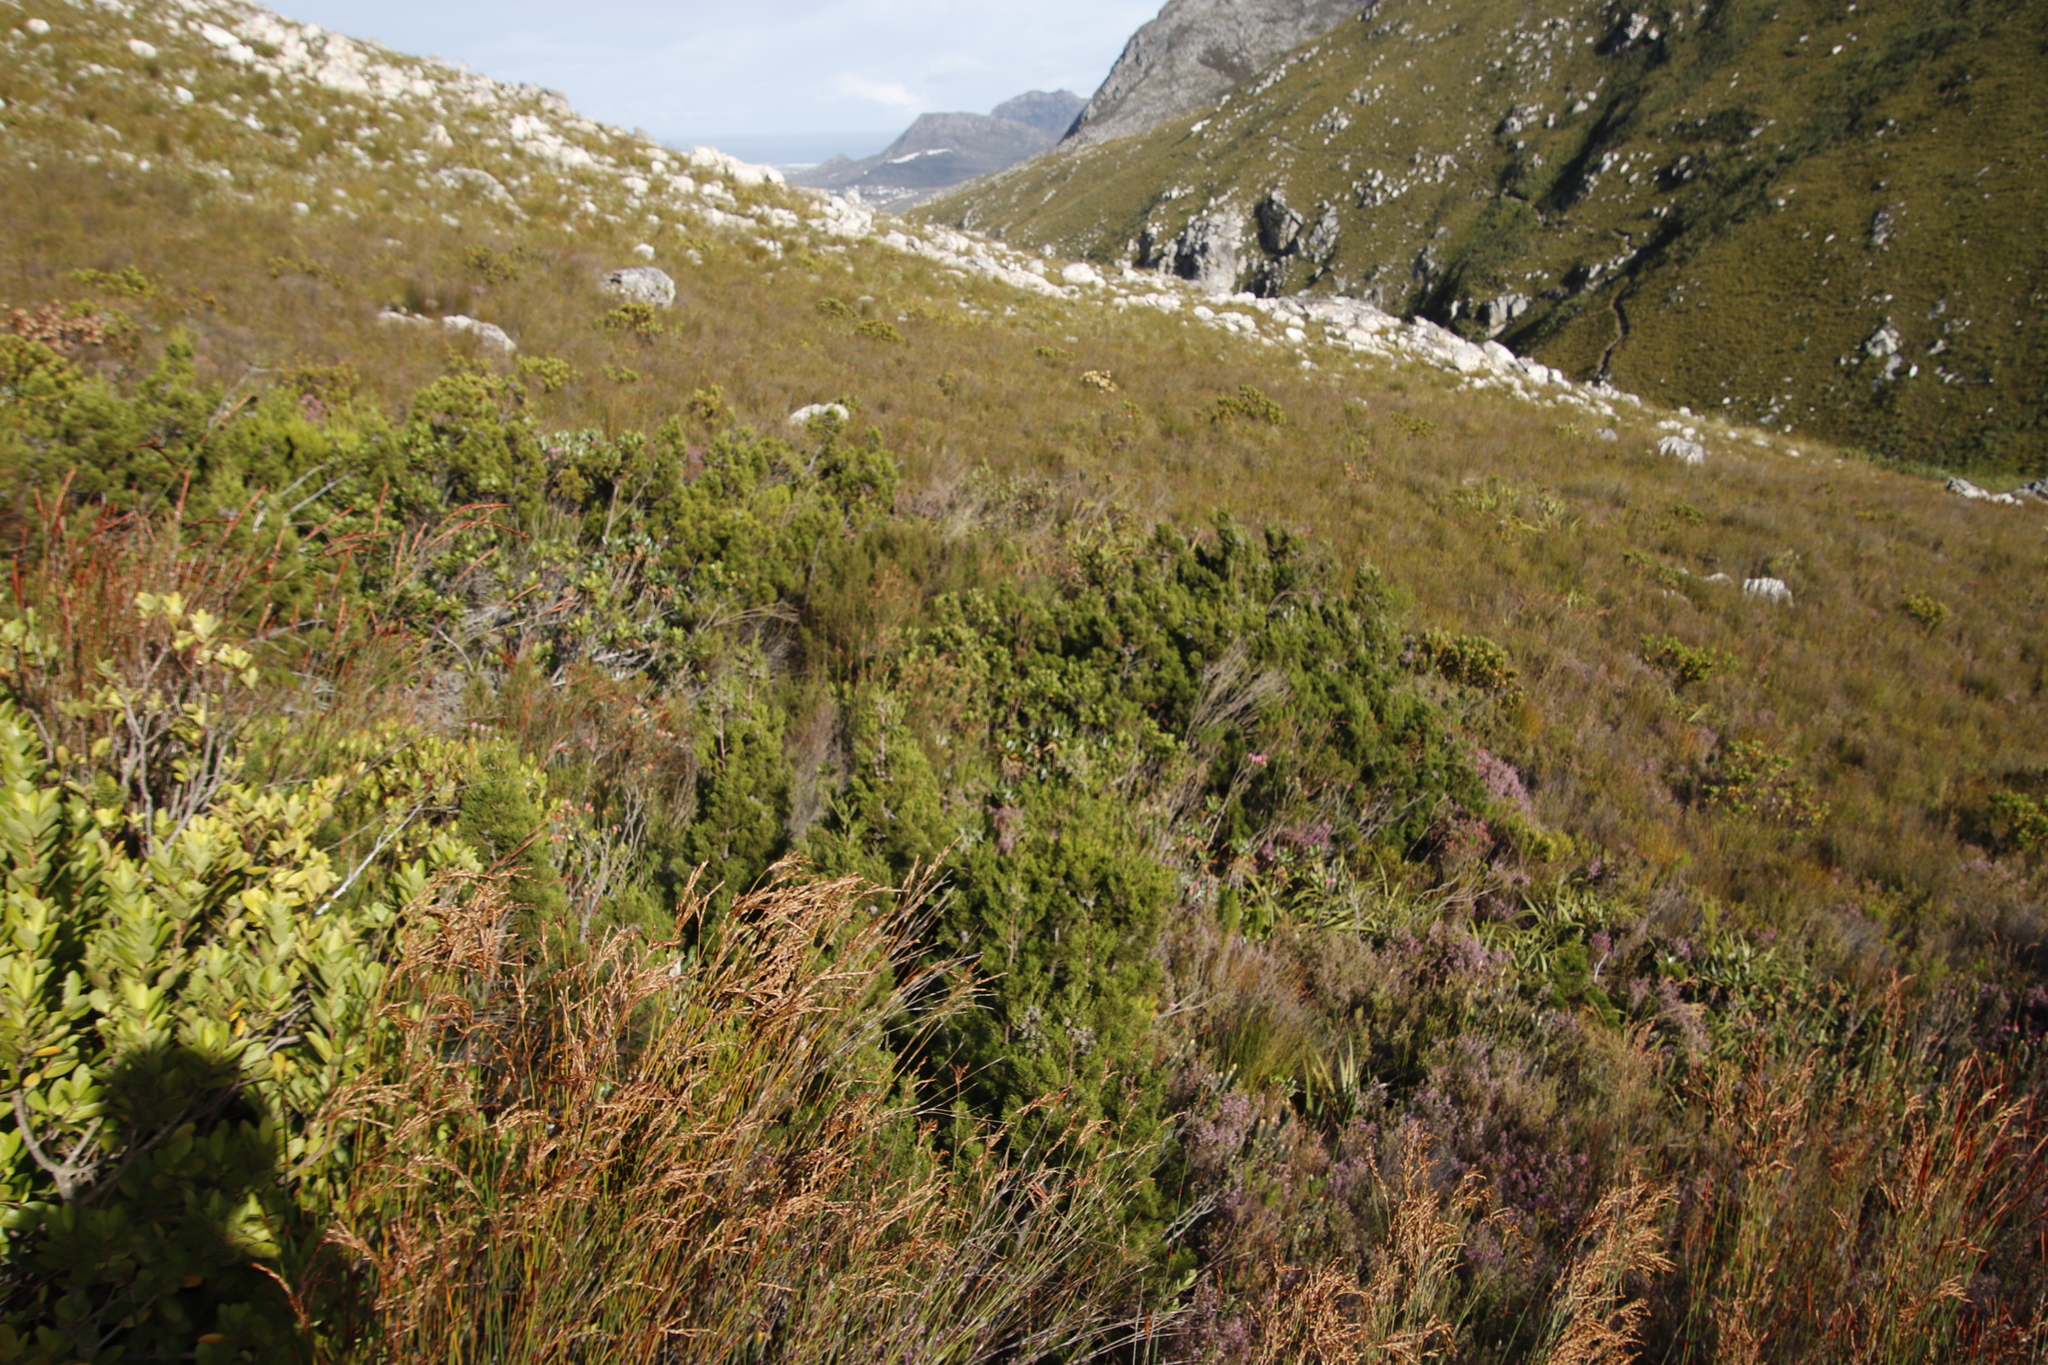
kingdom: Plantae
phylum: Tracheophyta
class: Magnoliopsida
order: Myrtales
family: Penaeaceae
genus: Saltera
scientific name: Saltera sarcocolla
